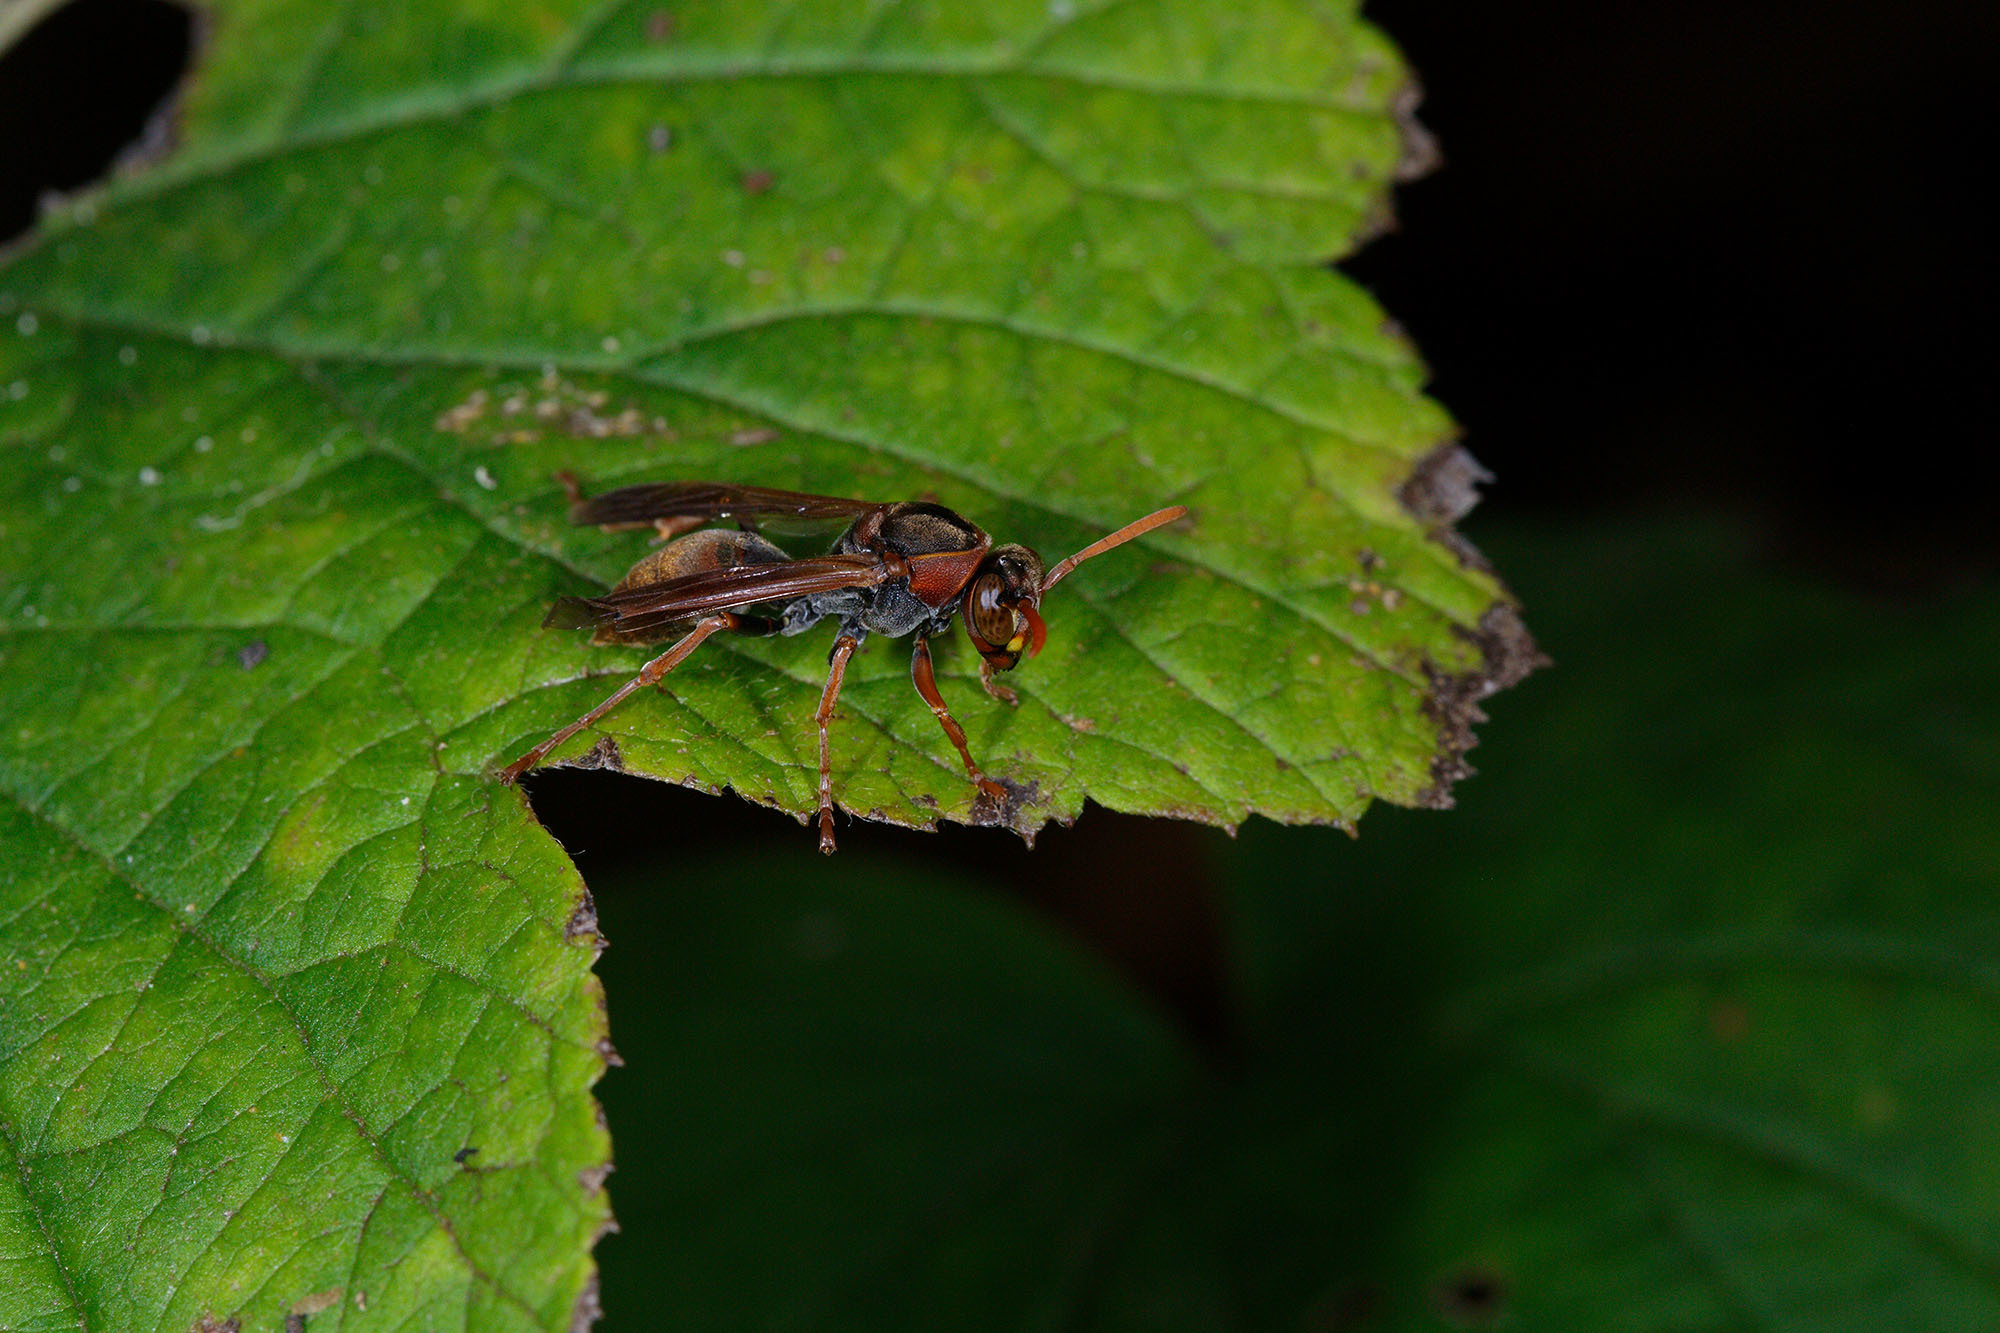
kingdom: Animalia
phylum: Arthropoda
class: Insecta
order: Hymenoptera
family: Eumenidae
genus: Polistes
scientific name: Polistes humilis
